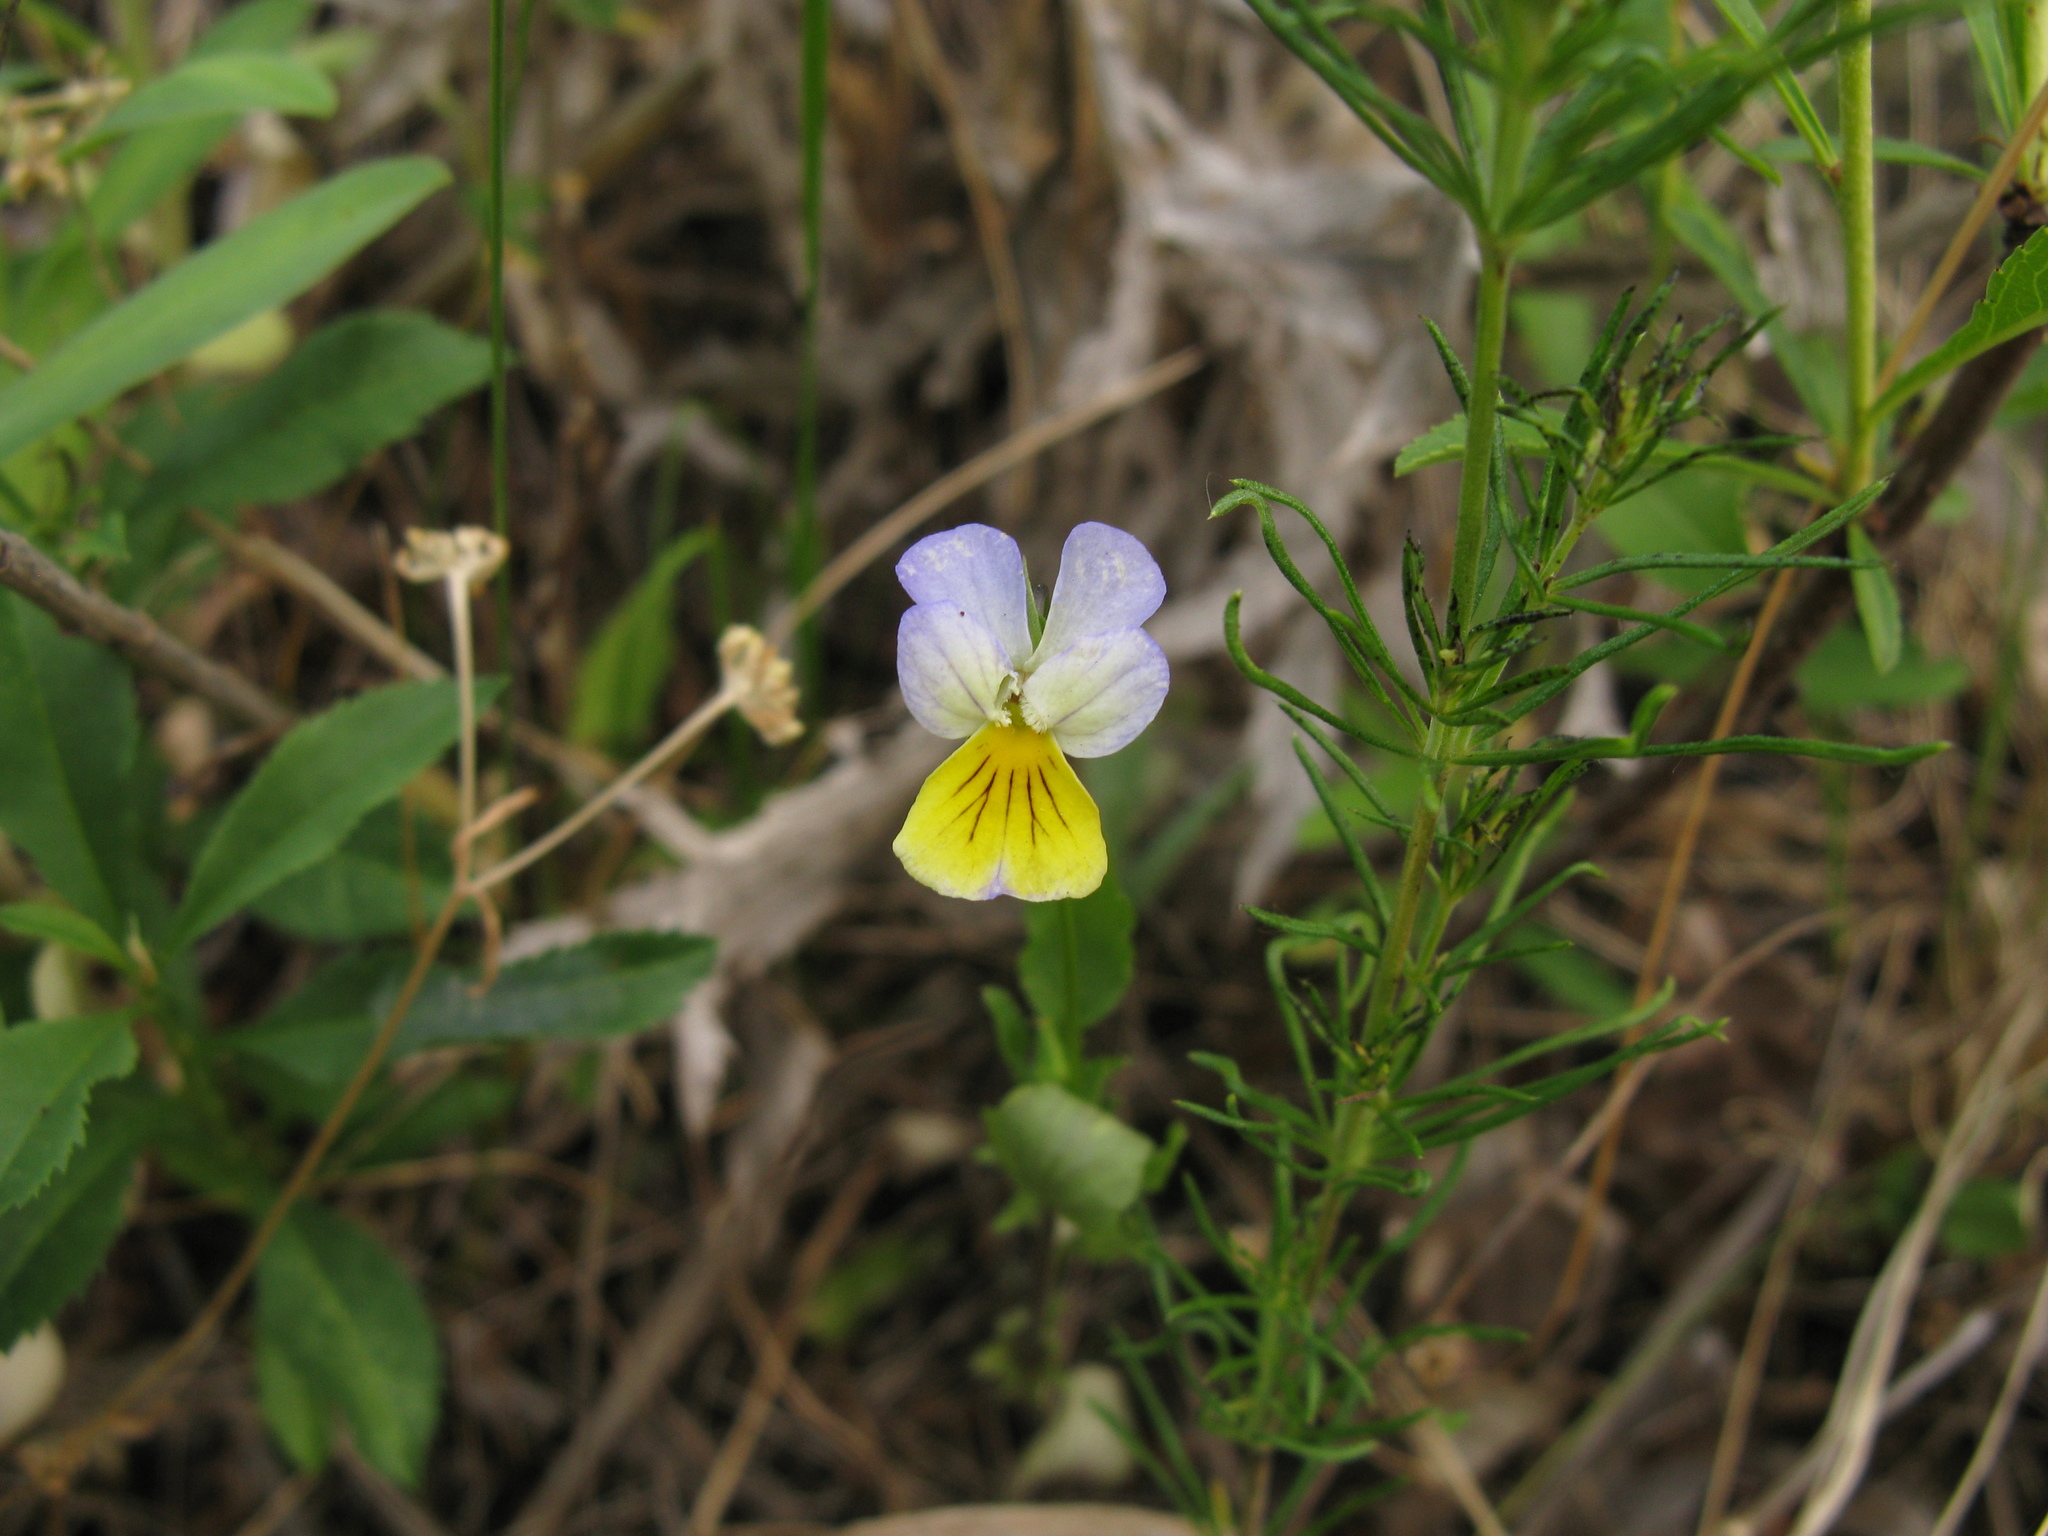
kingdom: Plantae
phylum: Tracheophyta
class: Magnoliopsida
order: Malpighiales
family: Violaceae
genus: Viola
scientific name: Viola tricolor
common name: Pansy
